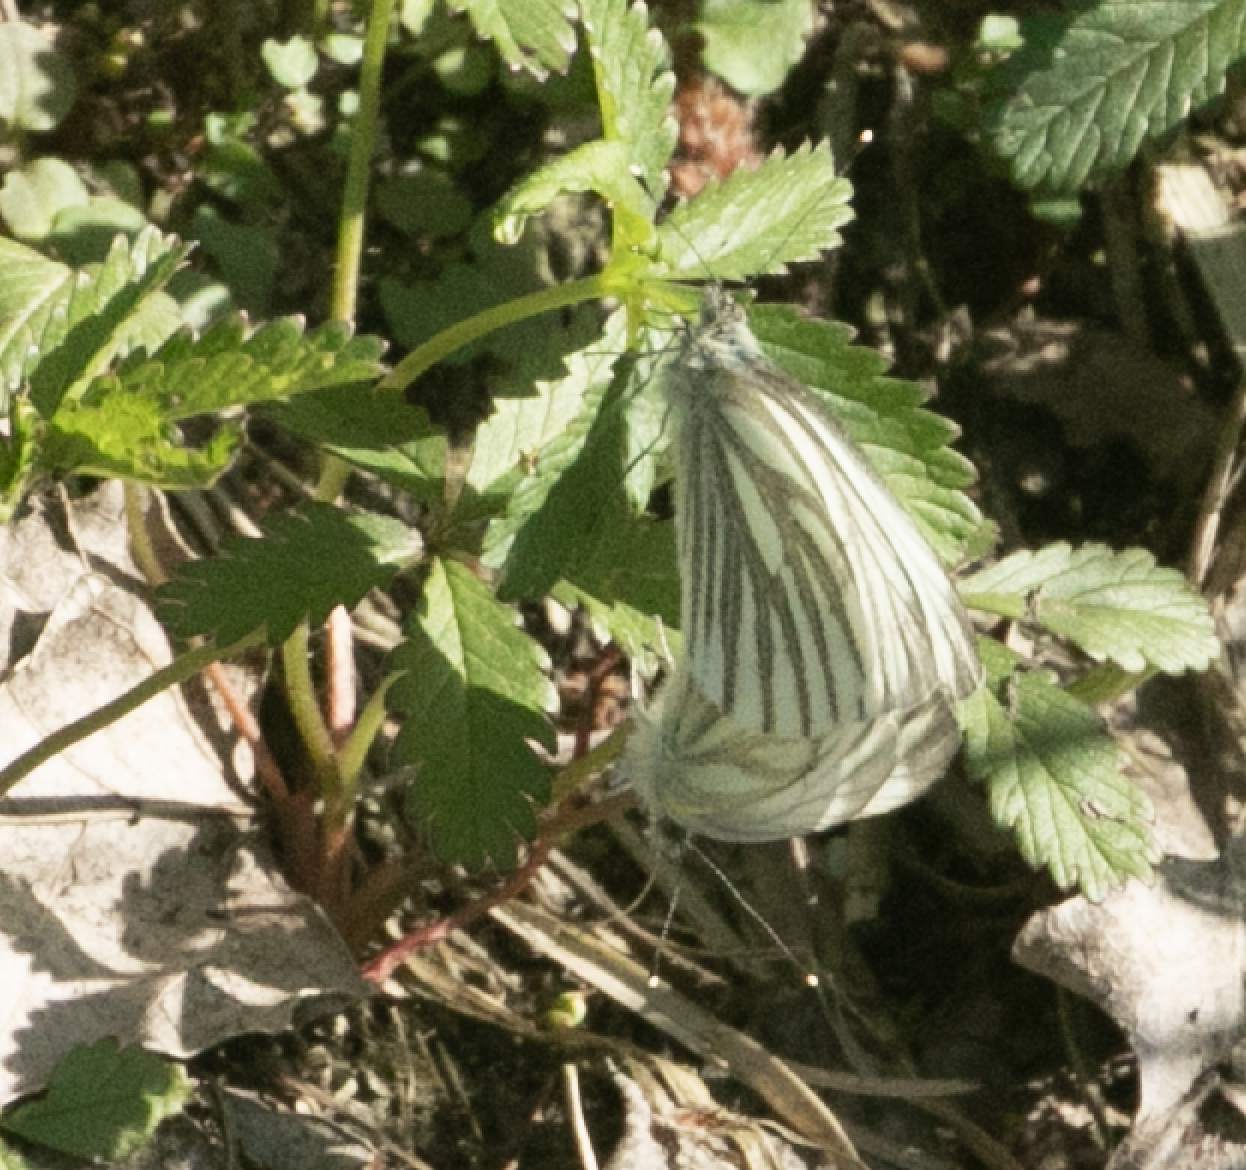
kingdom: Animalia
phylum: Arthropoda
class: Insecta
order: Lepidoptera
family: Pieridae
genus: Pieris
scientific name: Pieris napi
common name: Green-veined white
